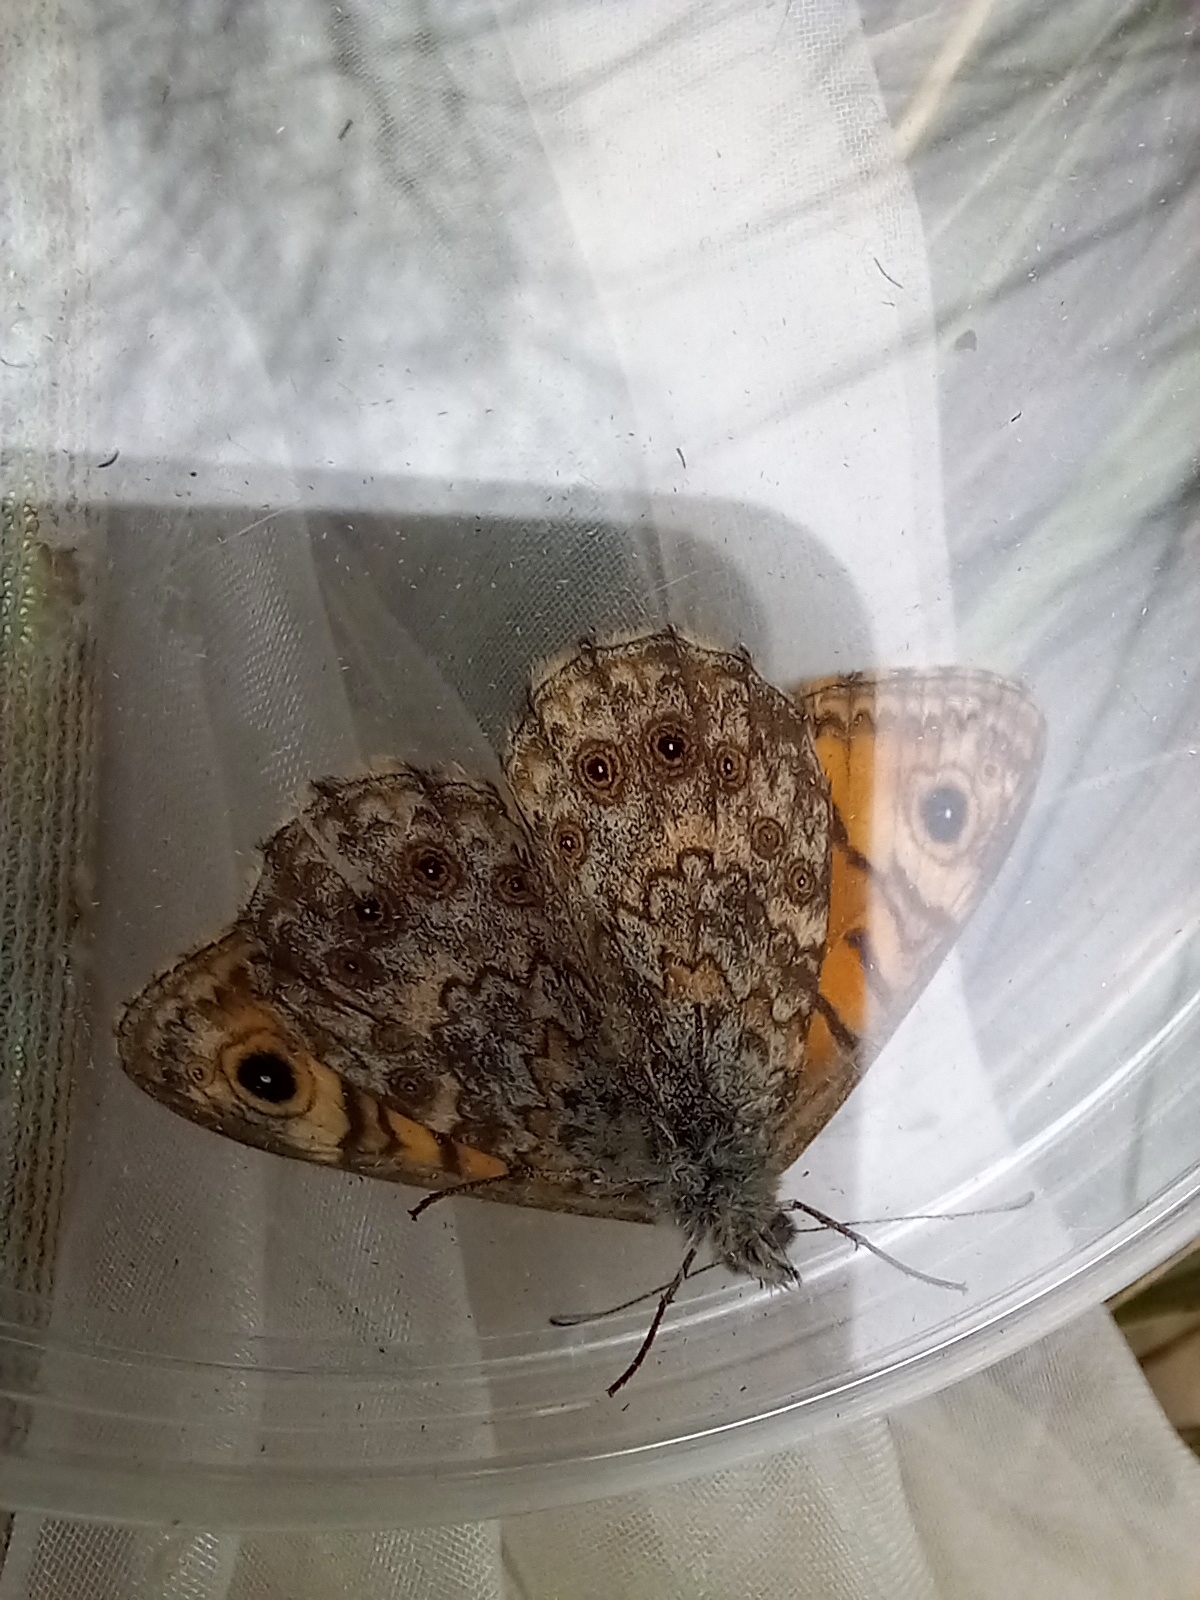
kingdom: Animalia
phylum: Arthropoda
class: Insecta
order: Lepidoptera
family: Nymphalidae
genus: Pararge
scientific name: Pararge Lasiommata megera
